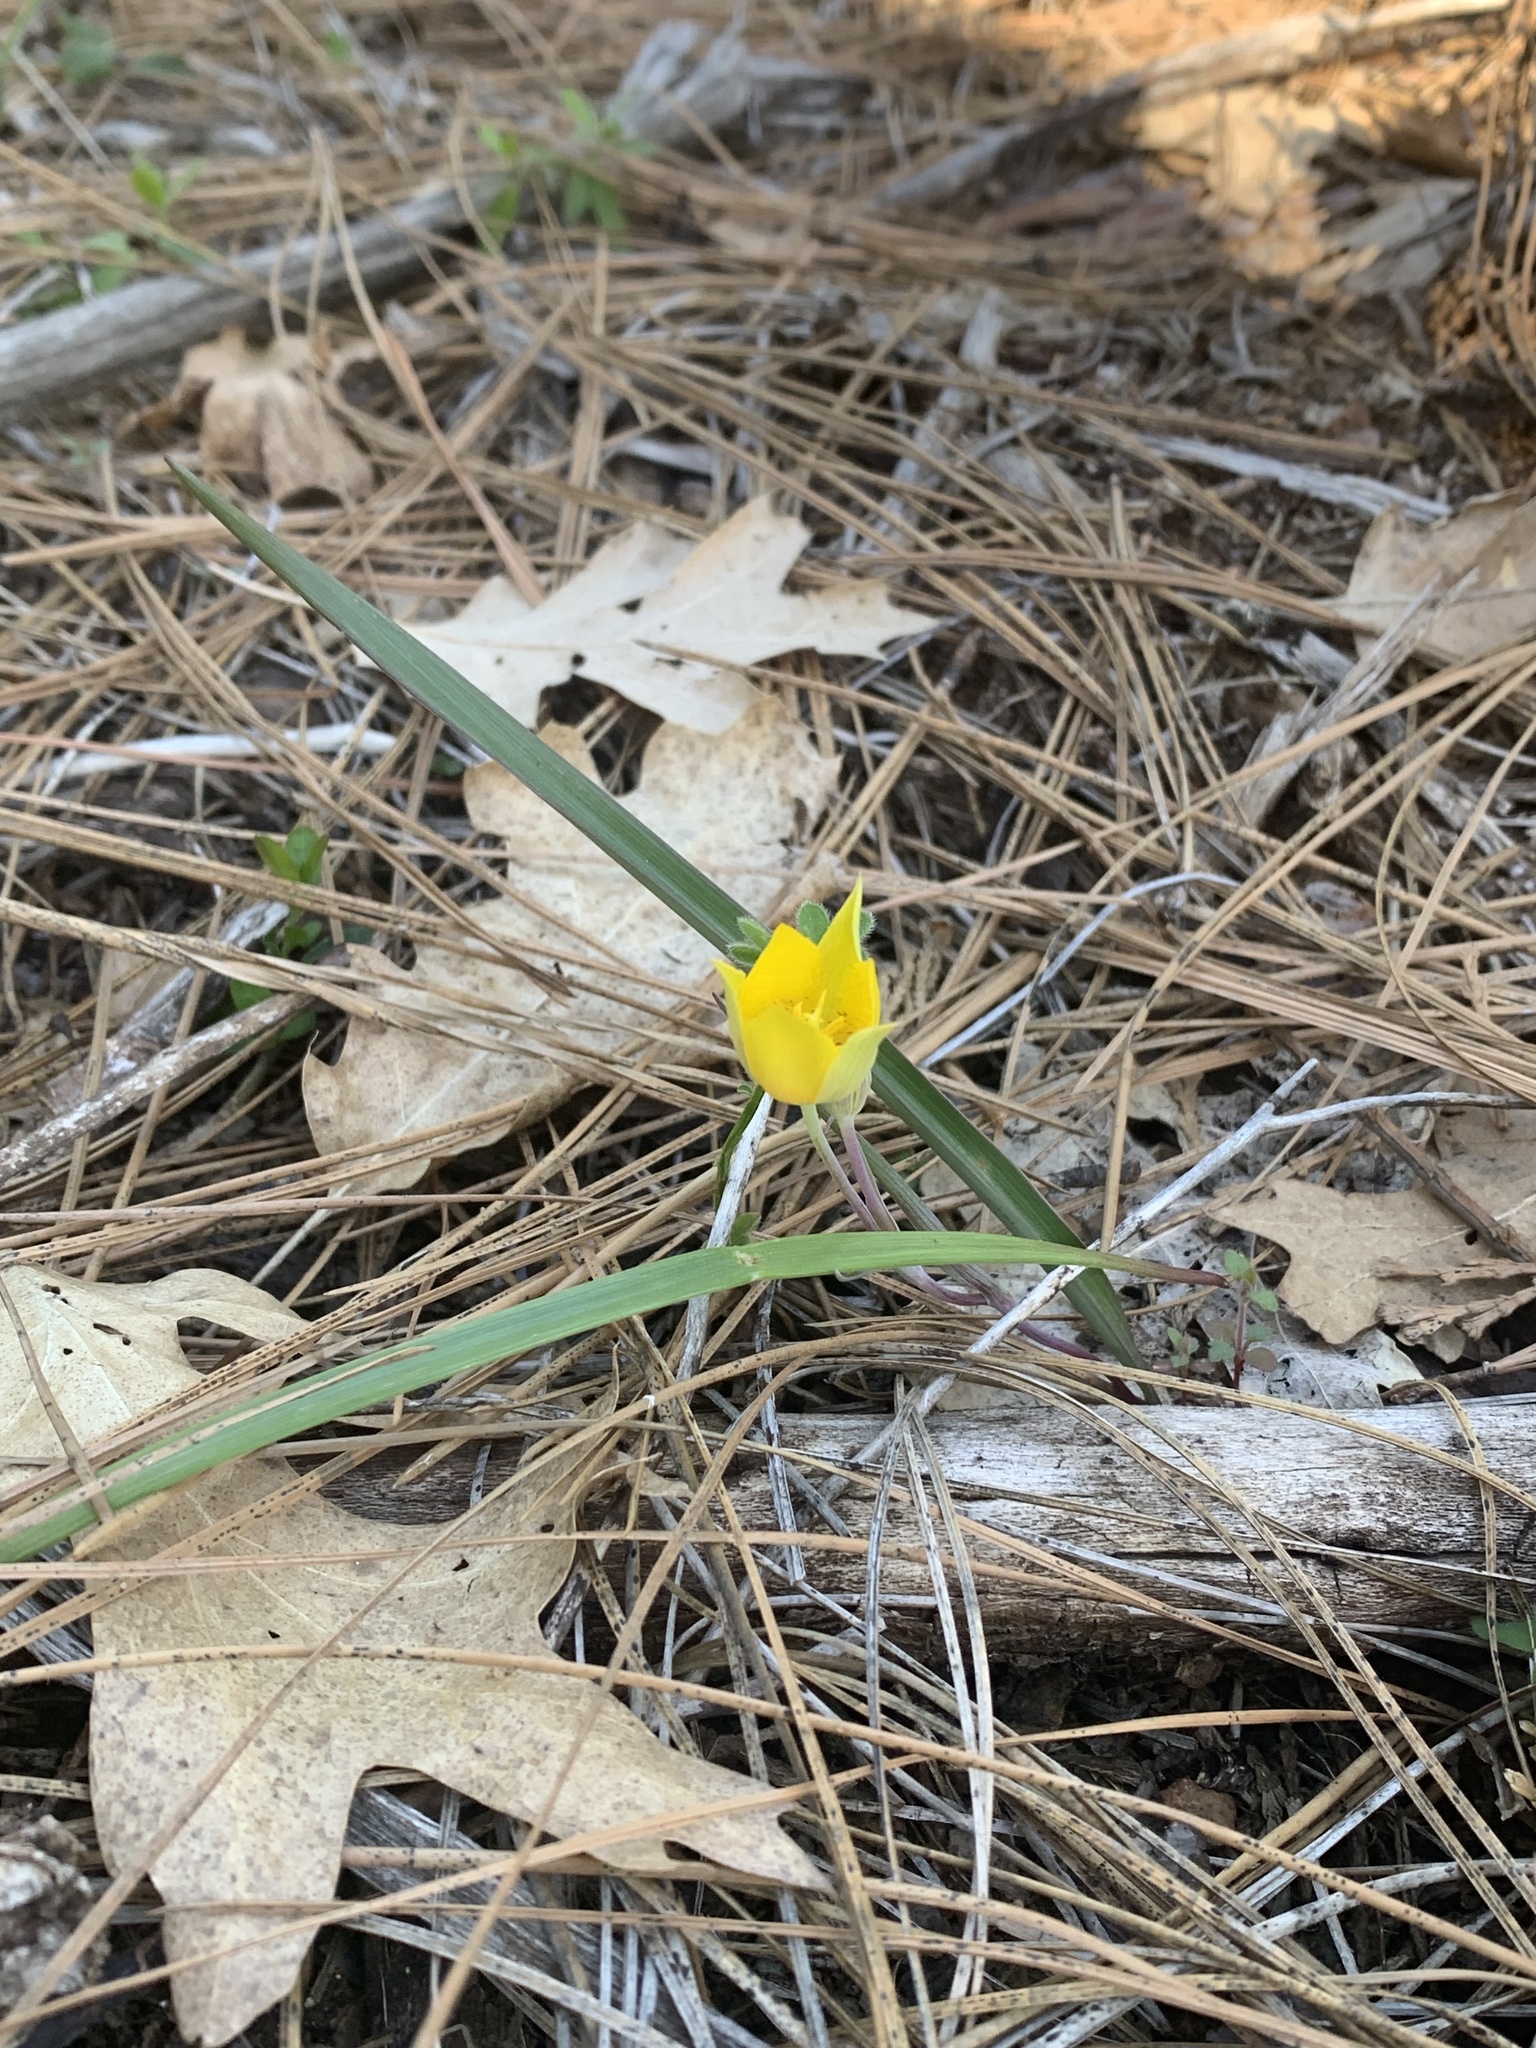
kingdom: Plantae
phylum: Tracheophyta
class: Liliopsida
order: Liliales
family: Liliaceae
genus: Calochortus
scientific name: Calochortus monophyllus
